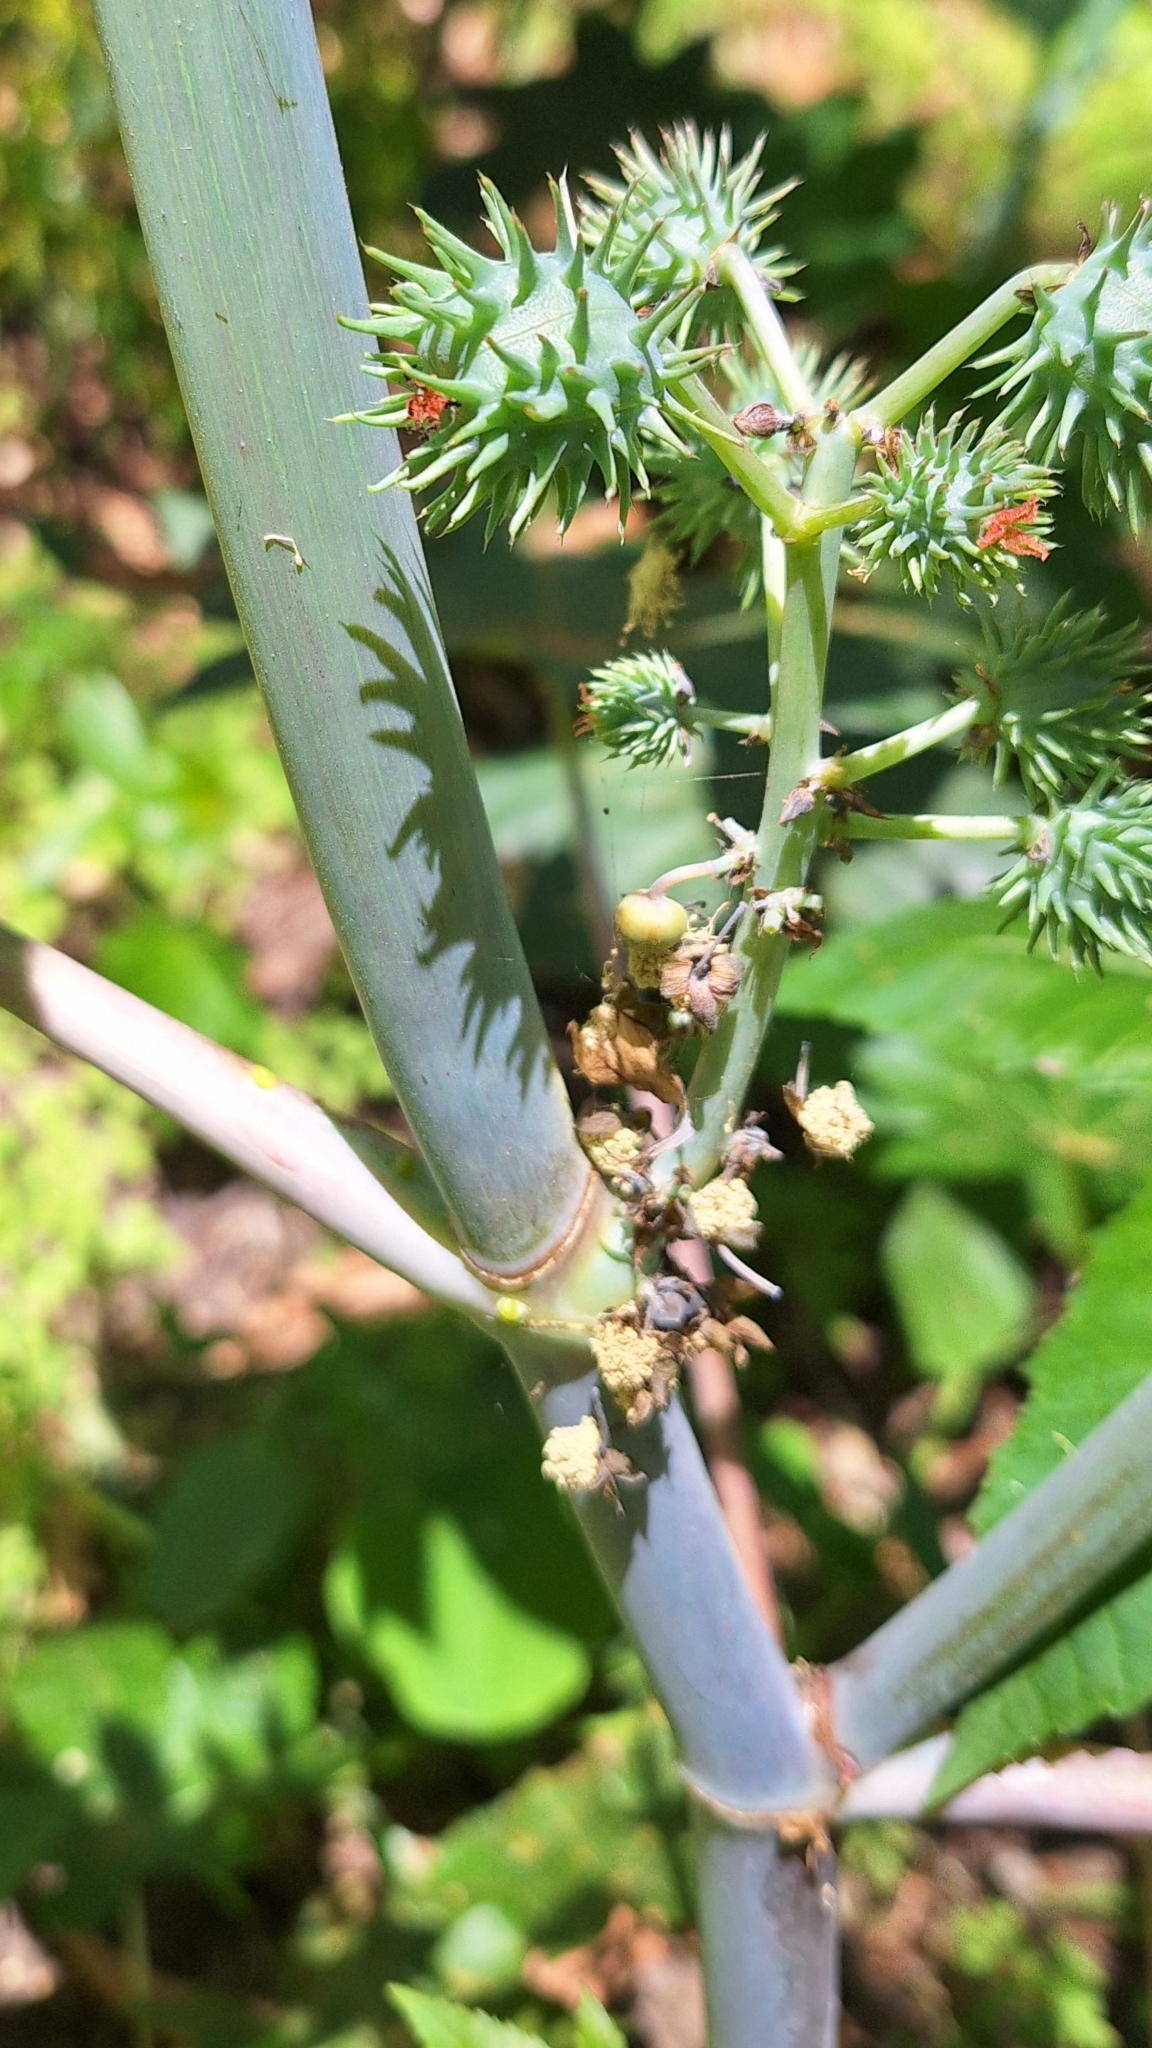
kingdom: Plantae
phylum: Tracheophyta
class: Magnoliopsida
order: Malpighiales
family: Euphorbiaceae
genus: Ricinus
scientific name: Ricinus communis
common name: Castor-oil-plant
